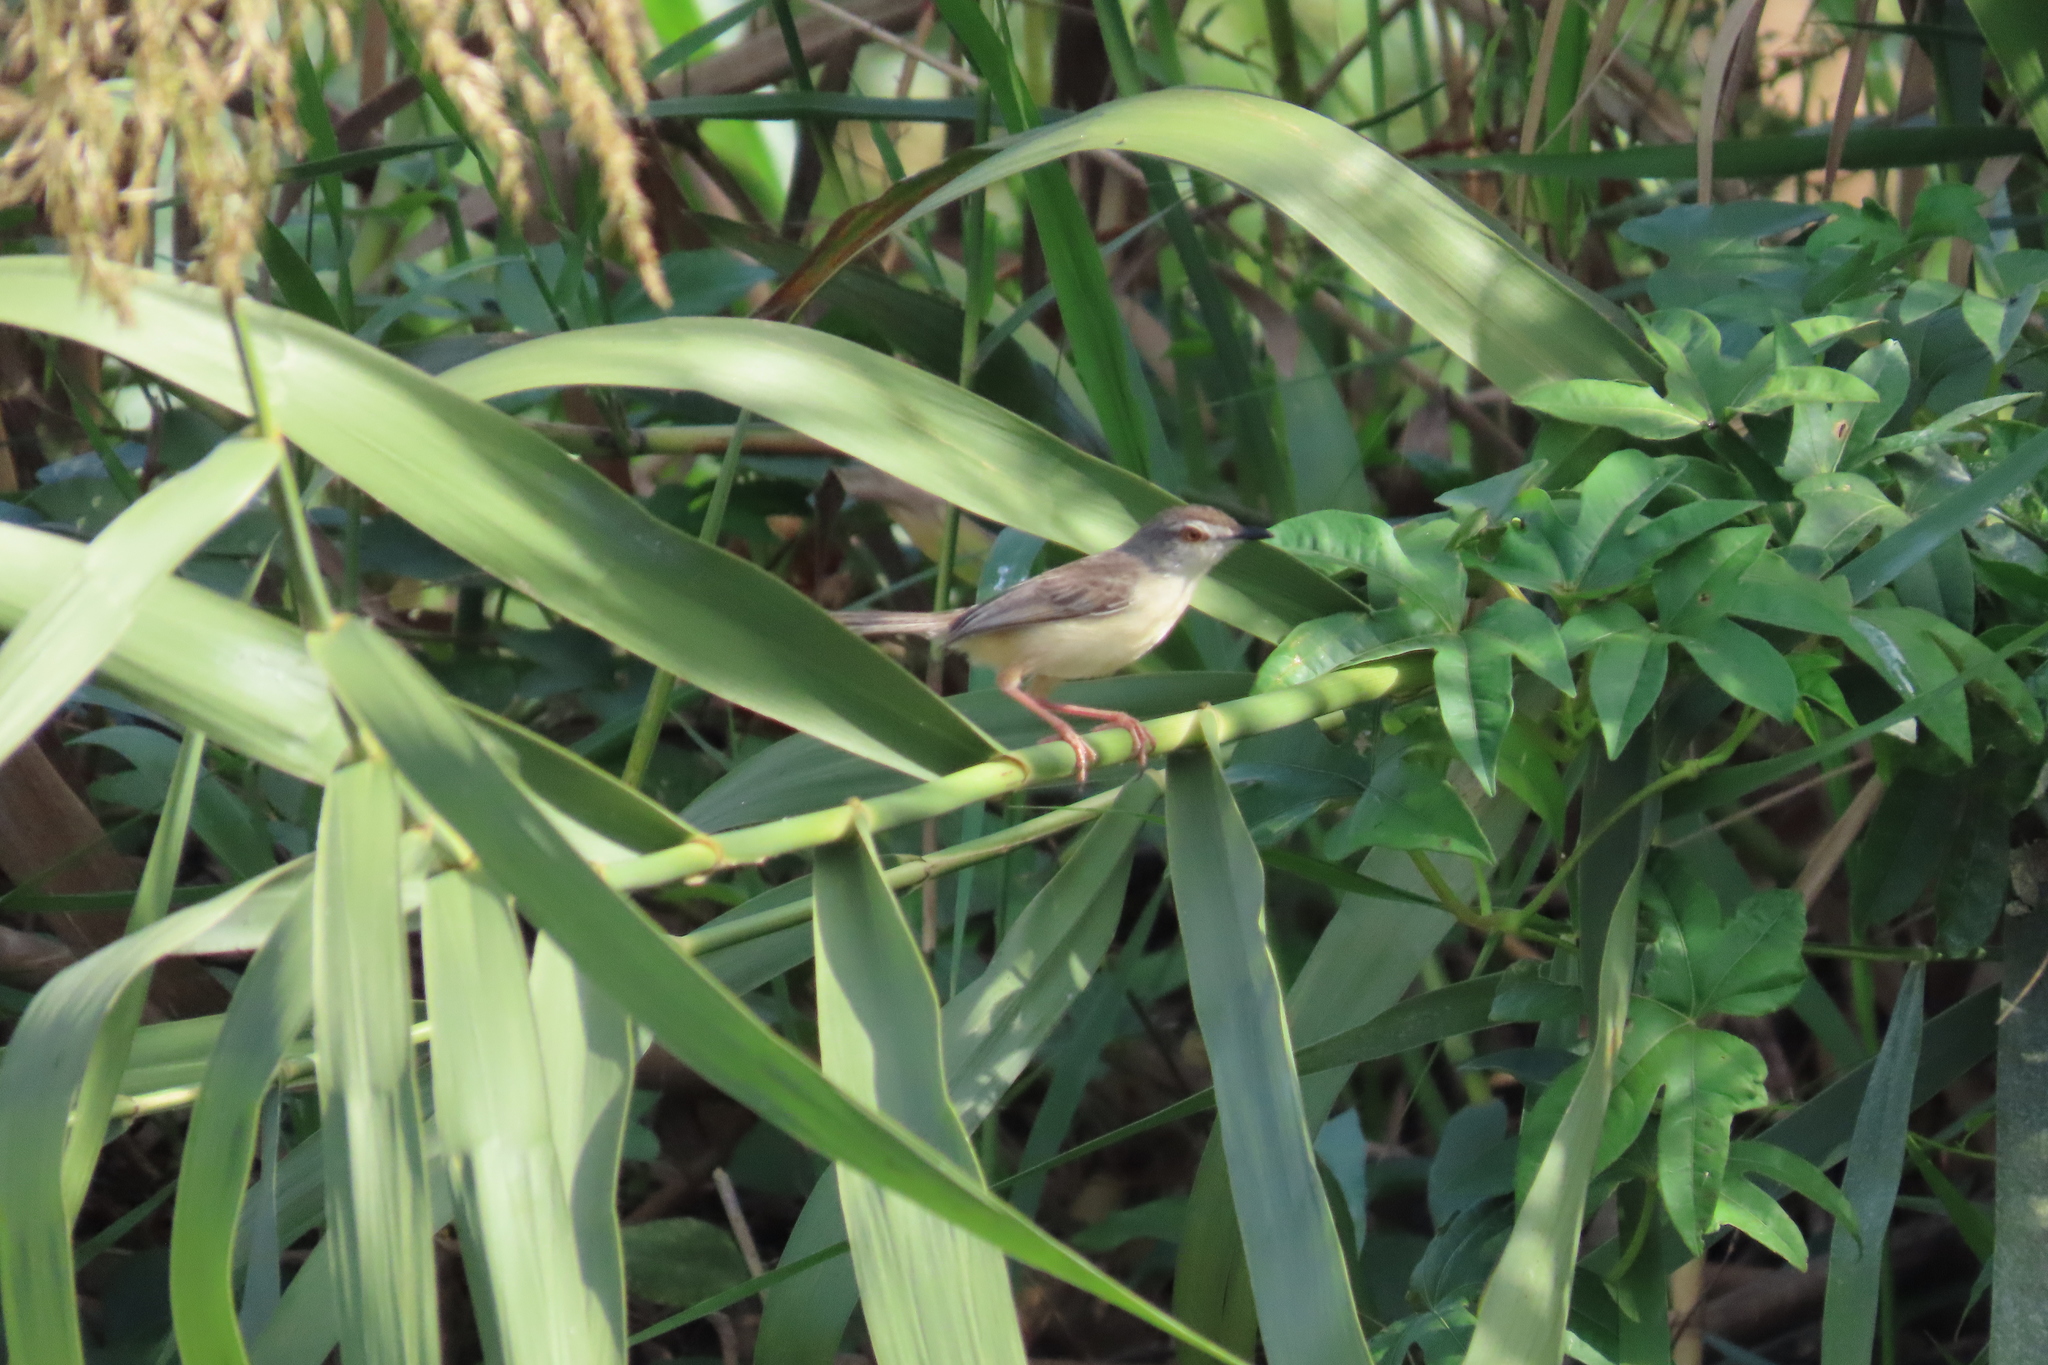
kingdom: Animalia
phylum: Chordata
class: Aves
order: Passeriformes
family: Cisticolidae
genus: Prinia
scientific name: Prinia inornata
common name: Plain prinia
